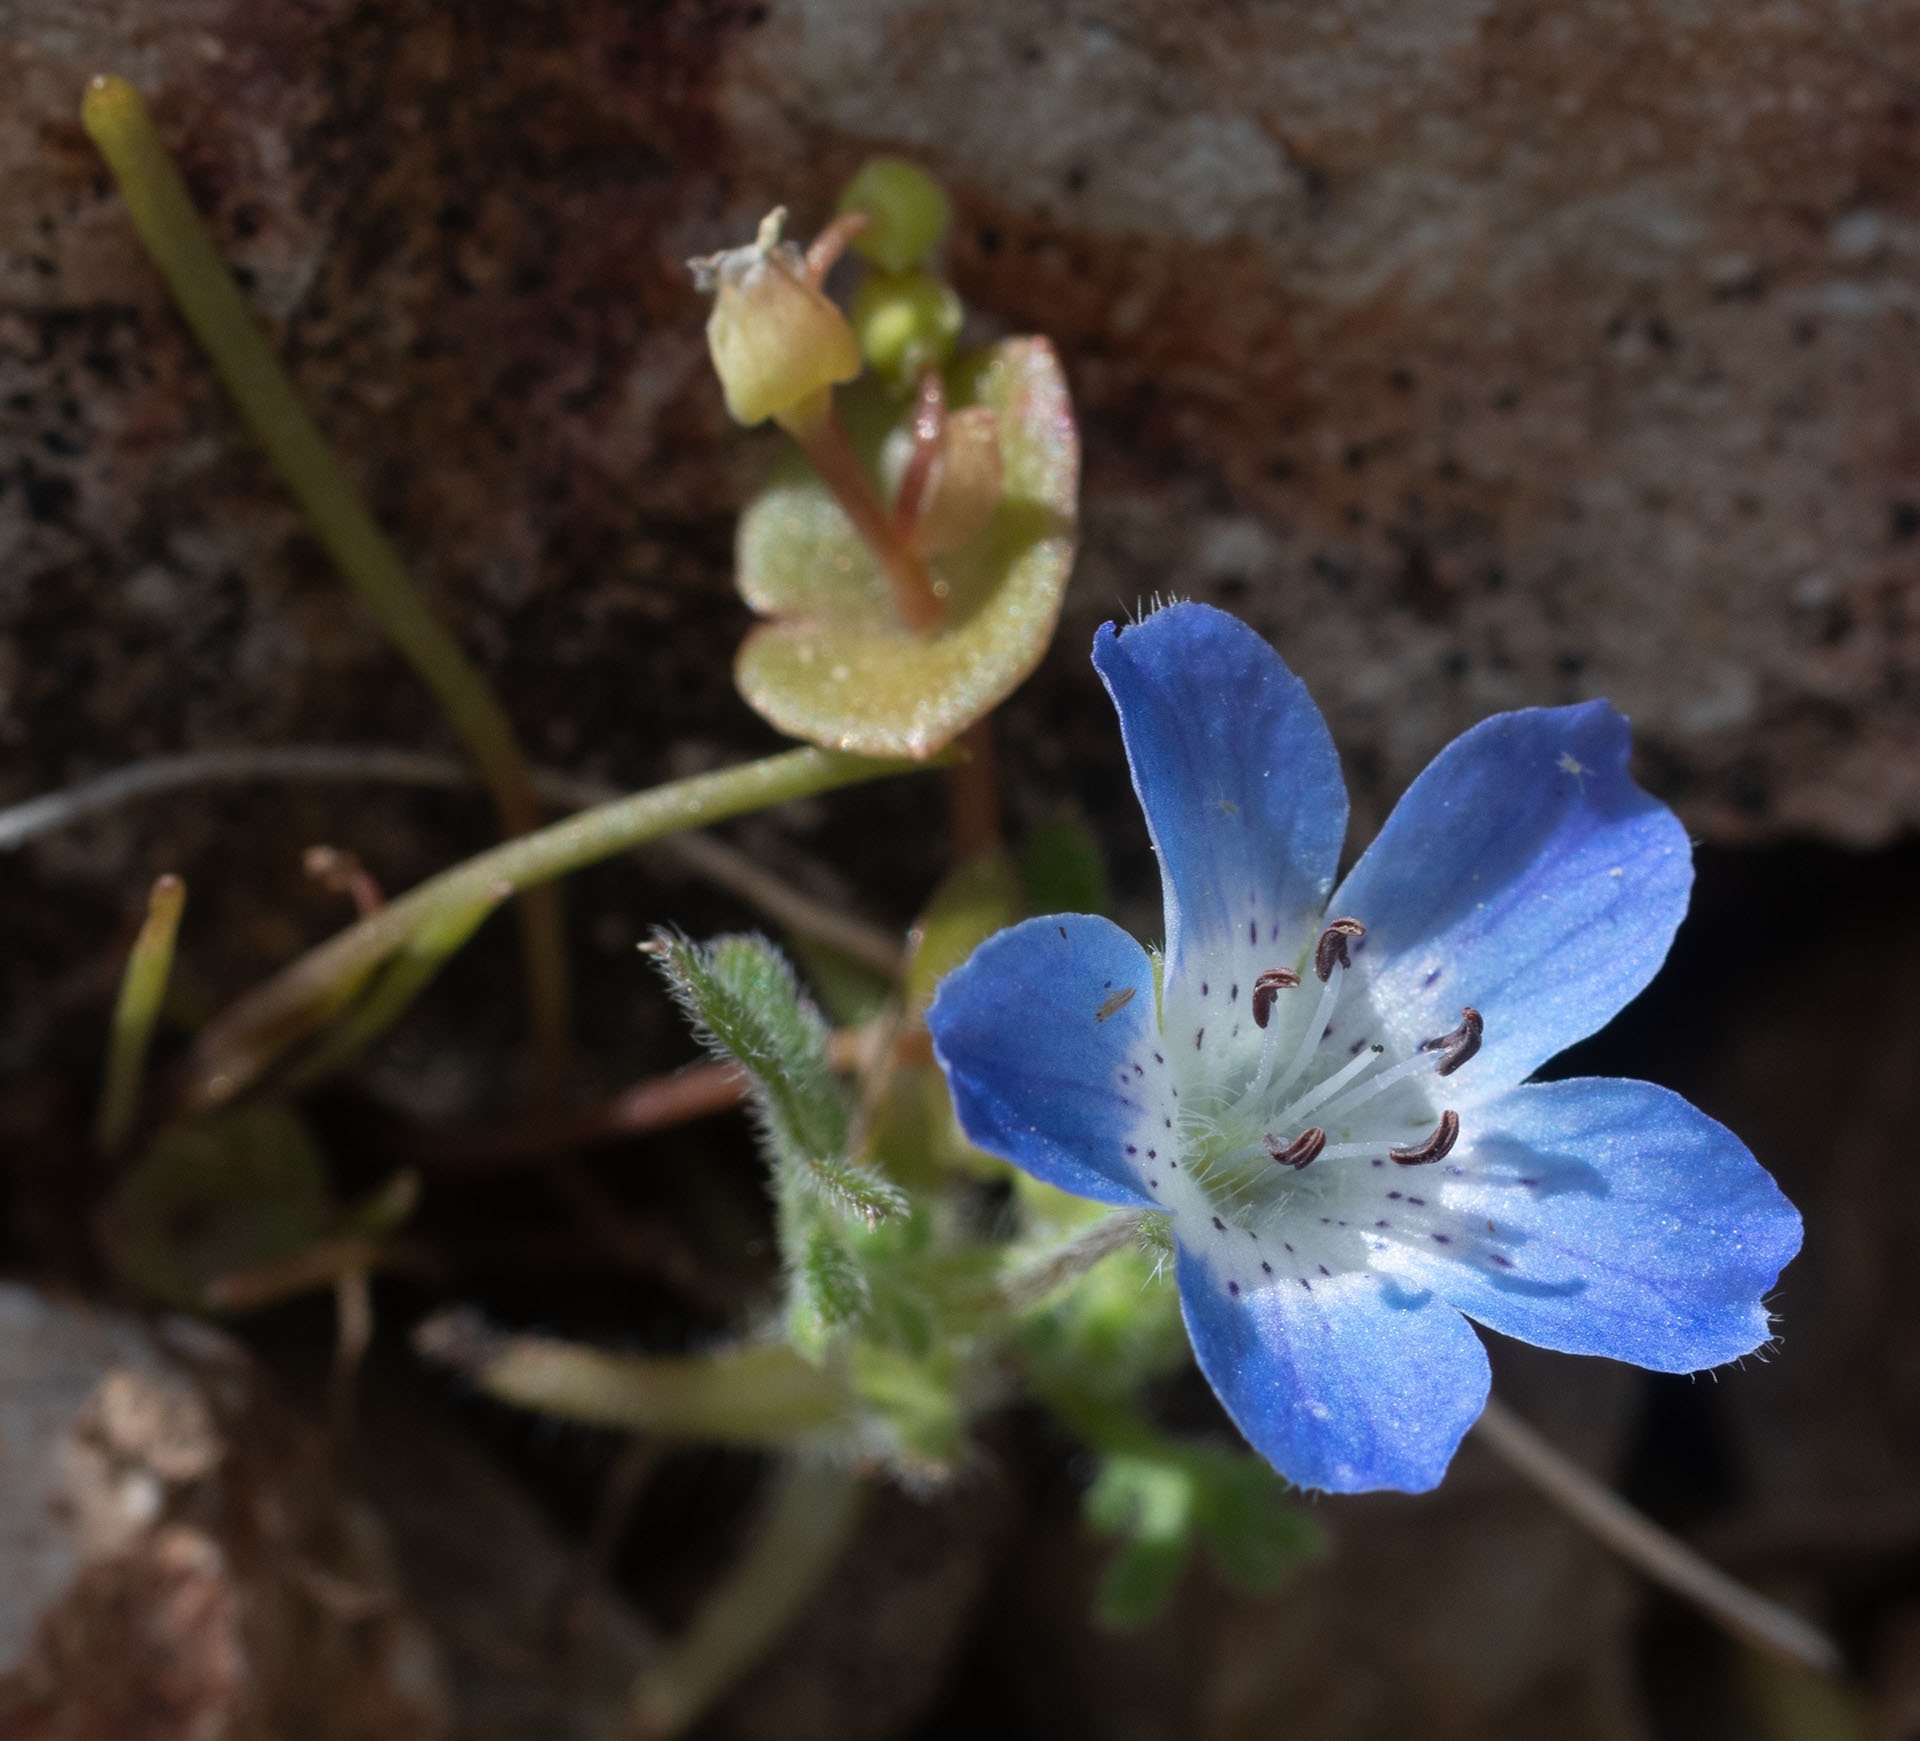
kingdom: Plantae
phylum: Tracheophyta
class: Magnoliopsida
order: Boraginales
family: Hydrophyllaceae
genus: Nemophila
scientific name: Nemophila menziesii
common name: Baby's-blue-eyes
